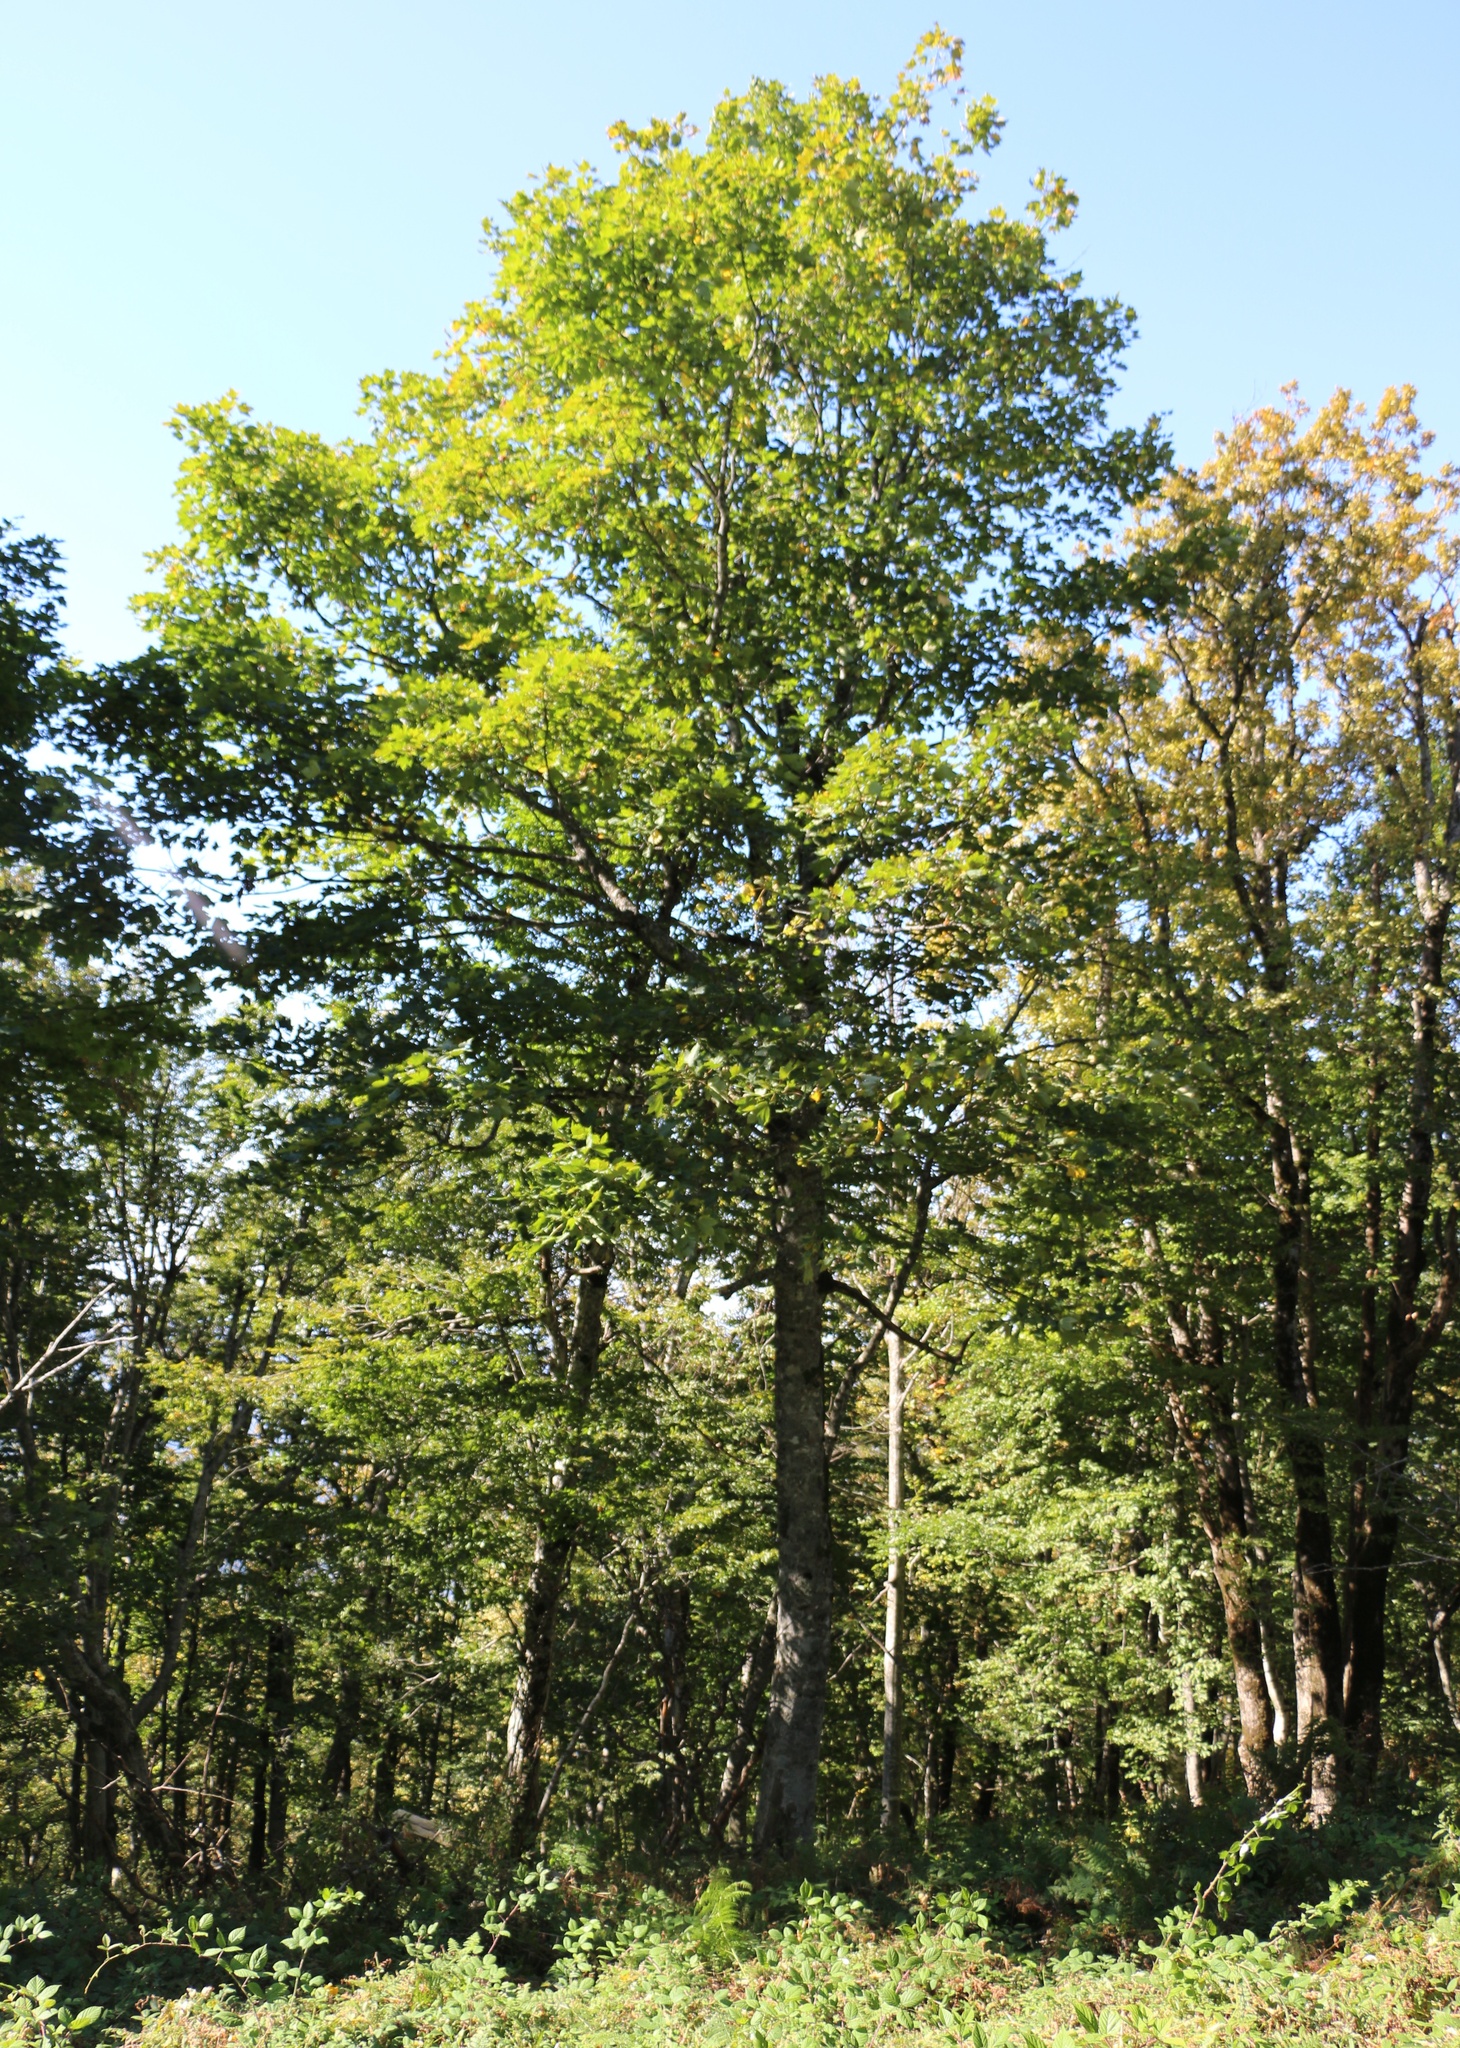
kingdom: Plantae
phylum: Tracheophyta
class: Magnoliopsida
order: Sapindales
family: Sapindaceae
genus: Acer
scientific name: Acer platanoides
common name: Norway maple
